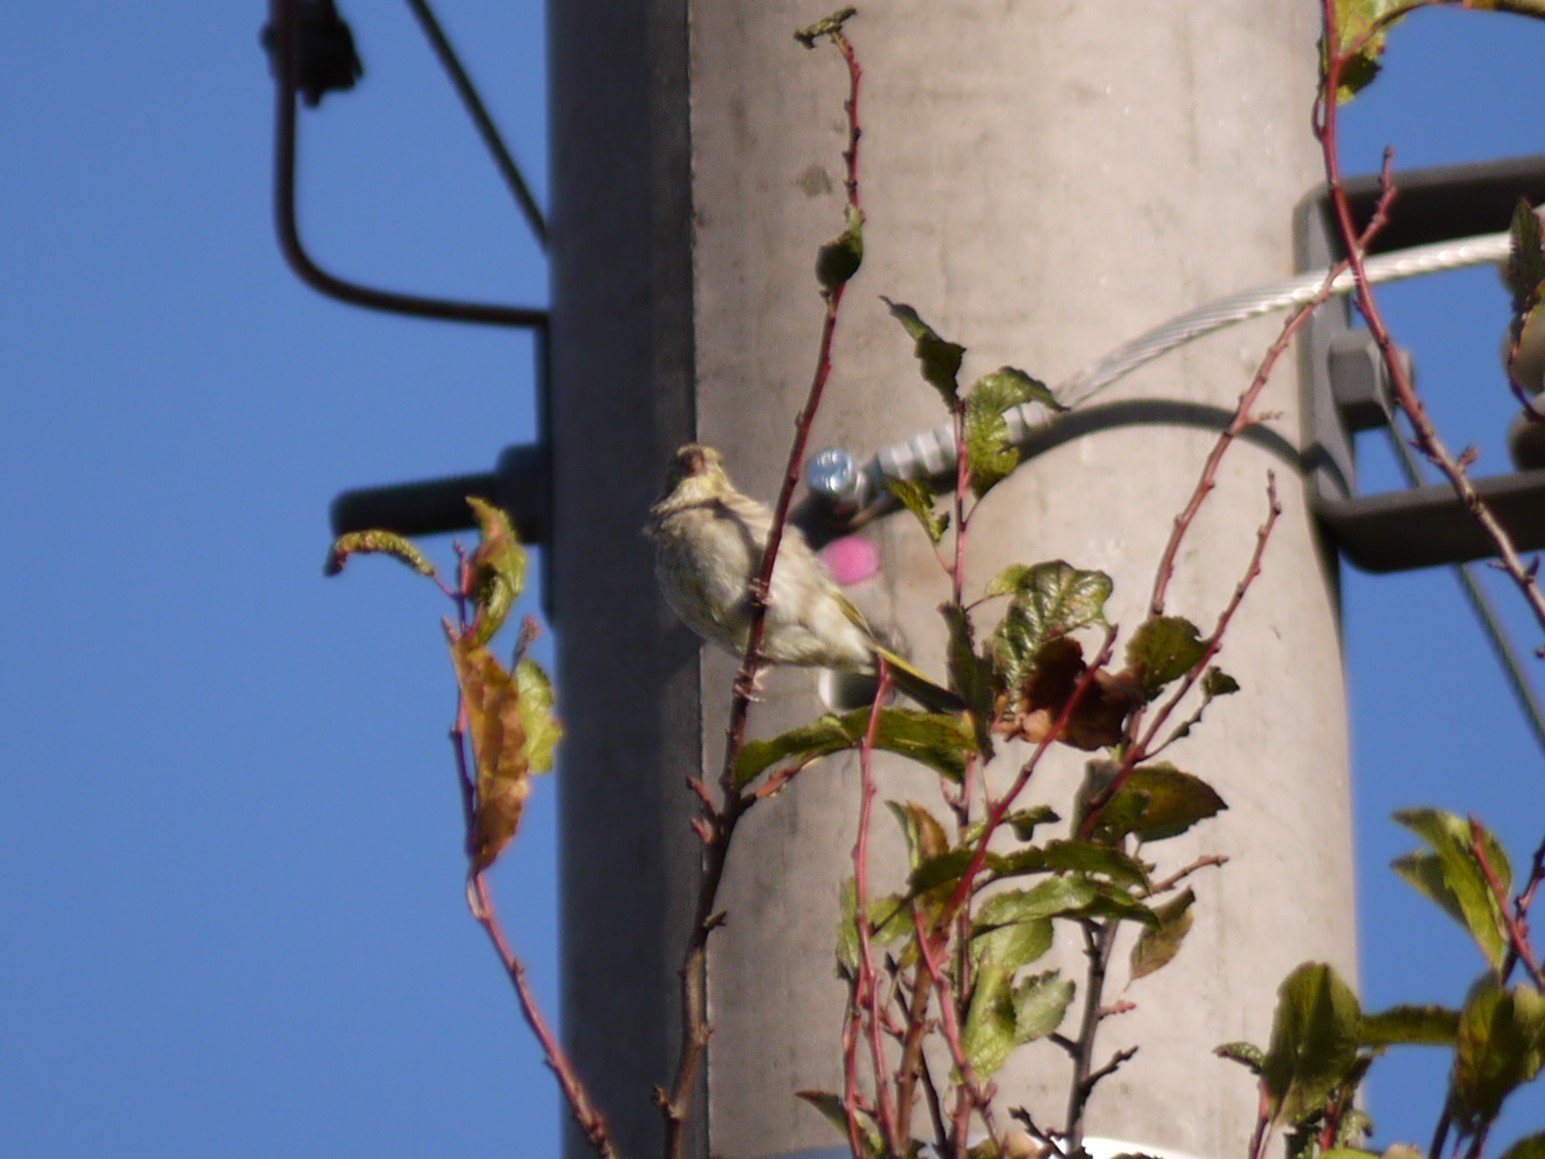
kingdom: Plantae
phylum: Tracheophyta
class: Liliopsida
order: Poales
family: Poaceae
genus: Chloris
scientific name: Chloris chloris
